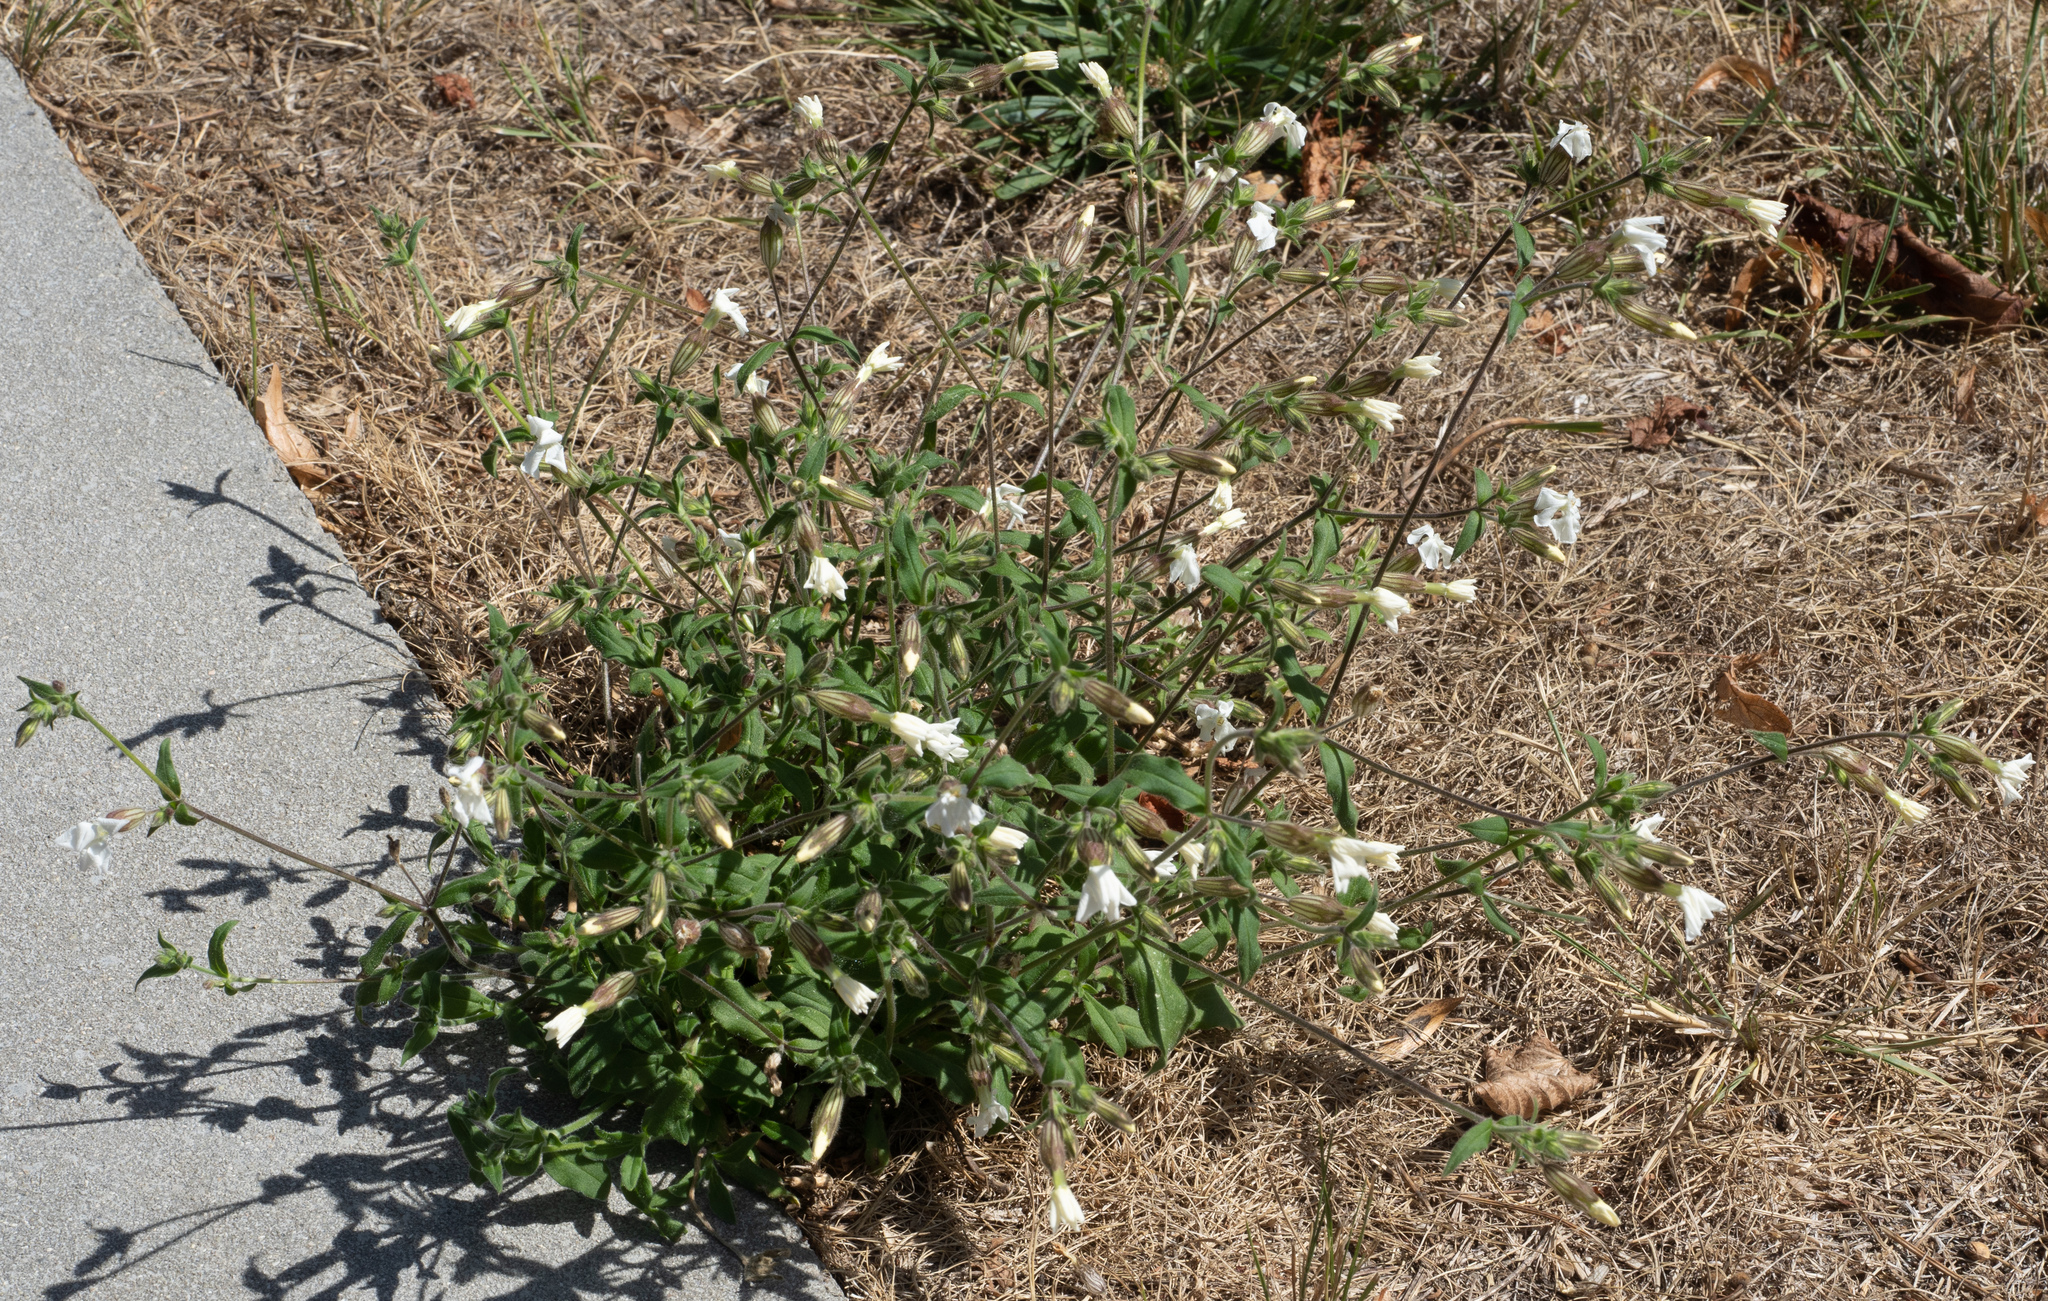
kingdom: Plantae
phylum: Tracheophyta
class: Magnoliopsida
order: Caryophyllales
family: Caryophyllaceae
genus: Silene
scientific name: Silene latifolia
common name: White campion
